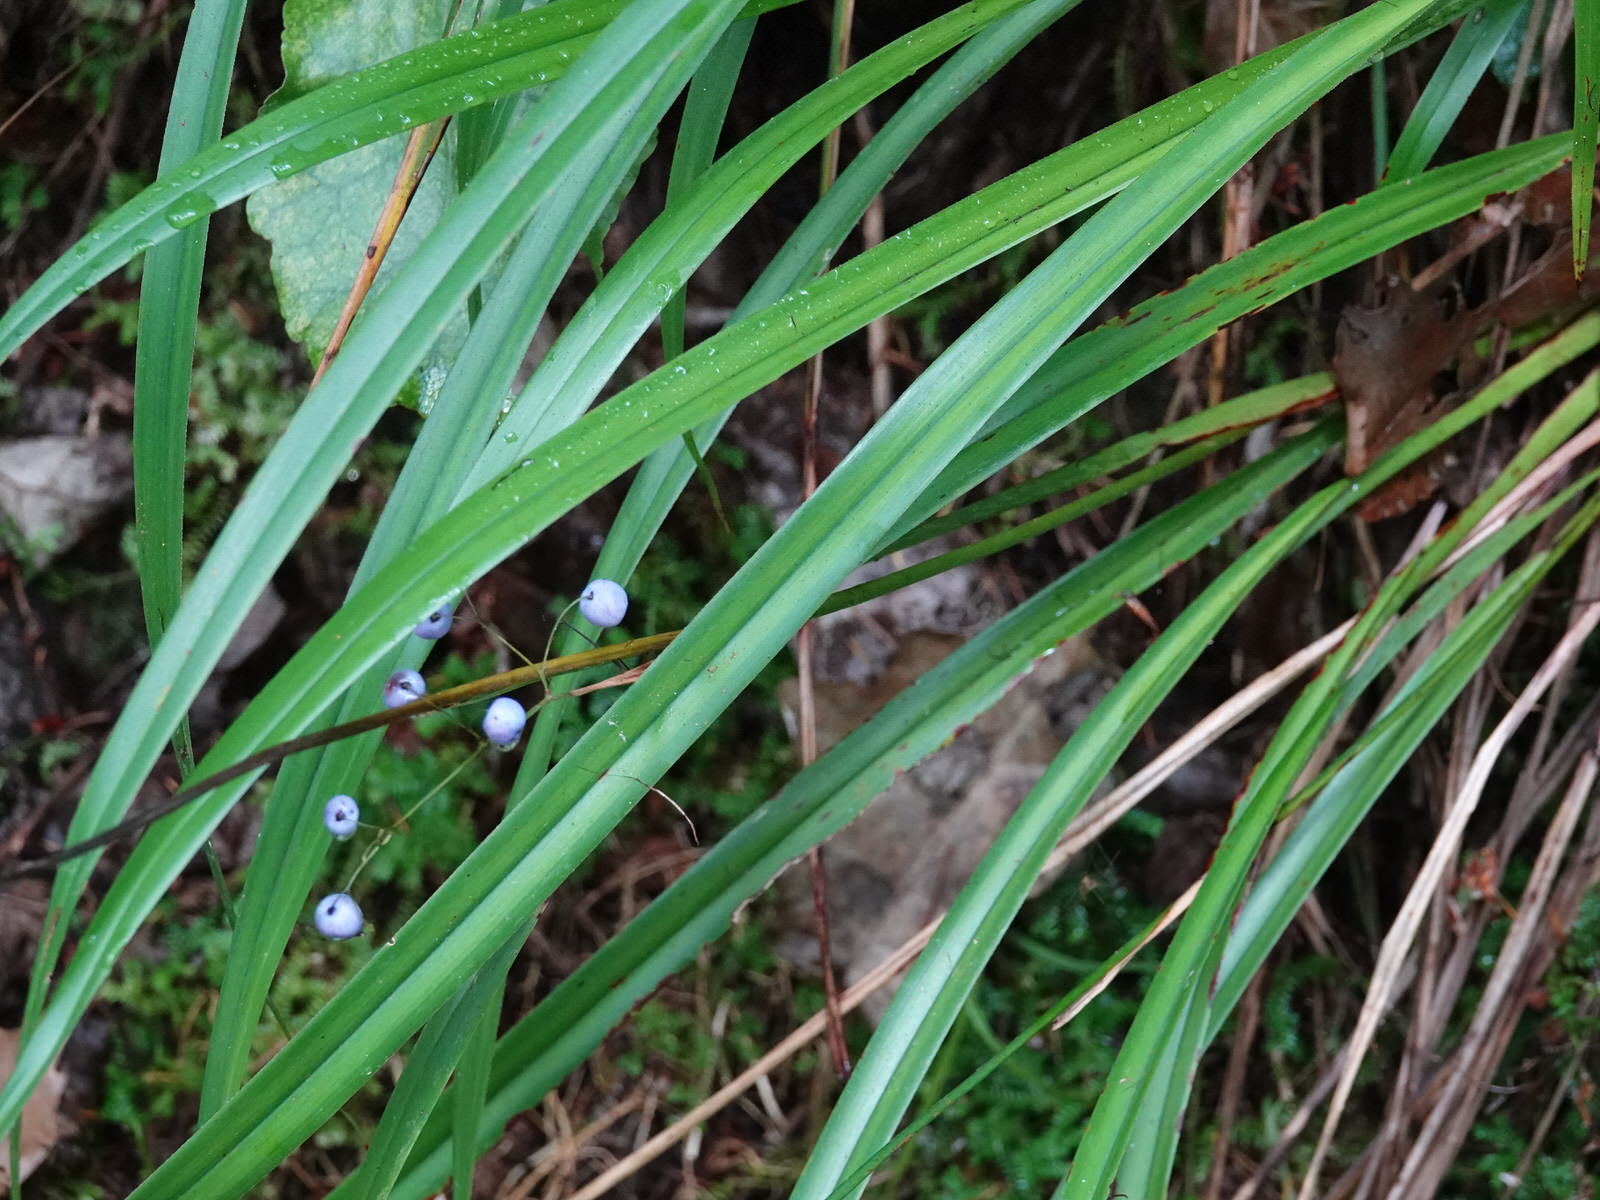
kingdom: Plantae
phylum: Tracheophyta
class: Liliopsida
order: Asparagales
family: Asphodelaceae
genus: Dianella
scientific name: Dianella nigra
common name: New zealand-blueberry
